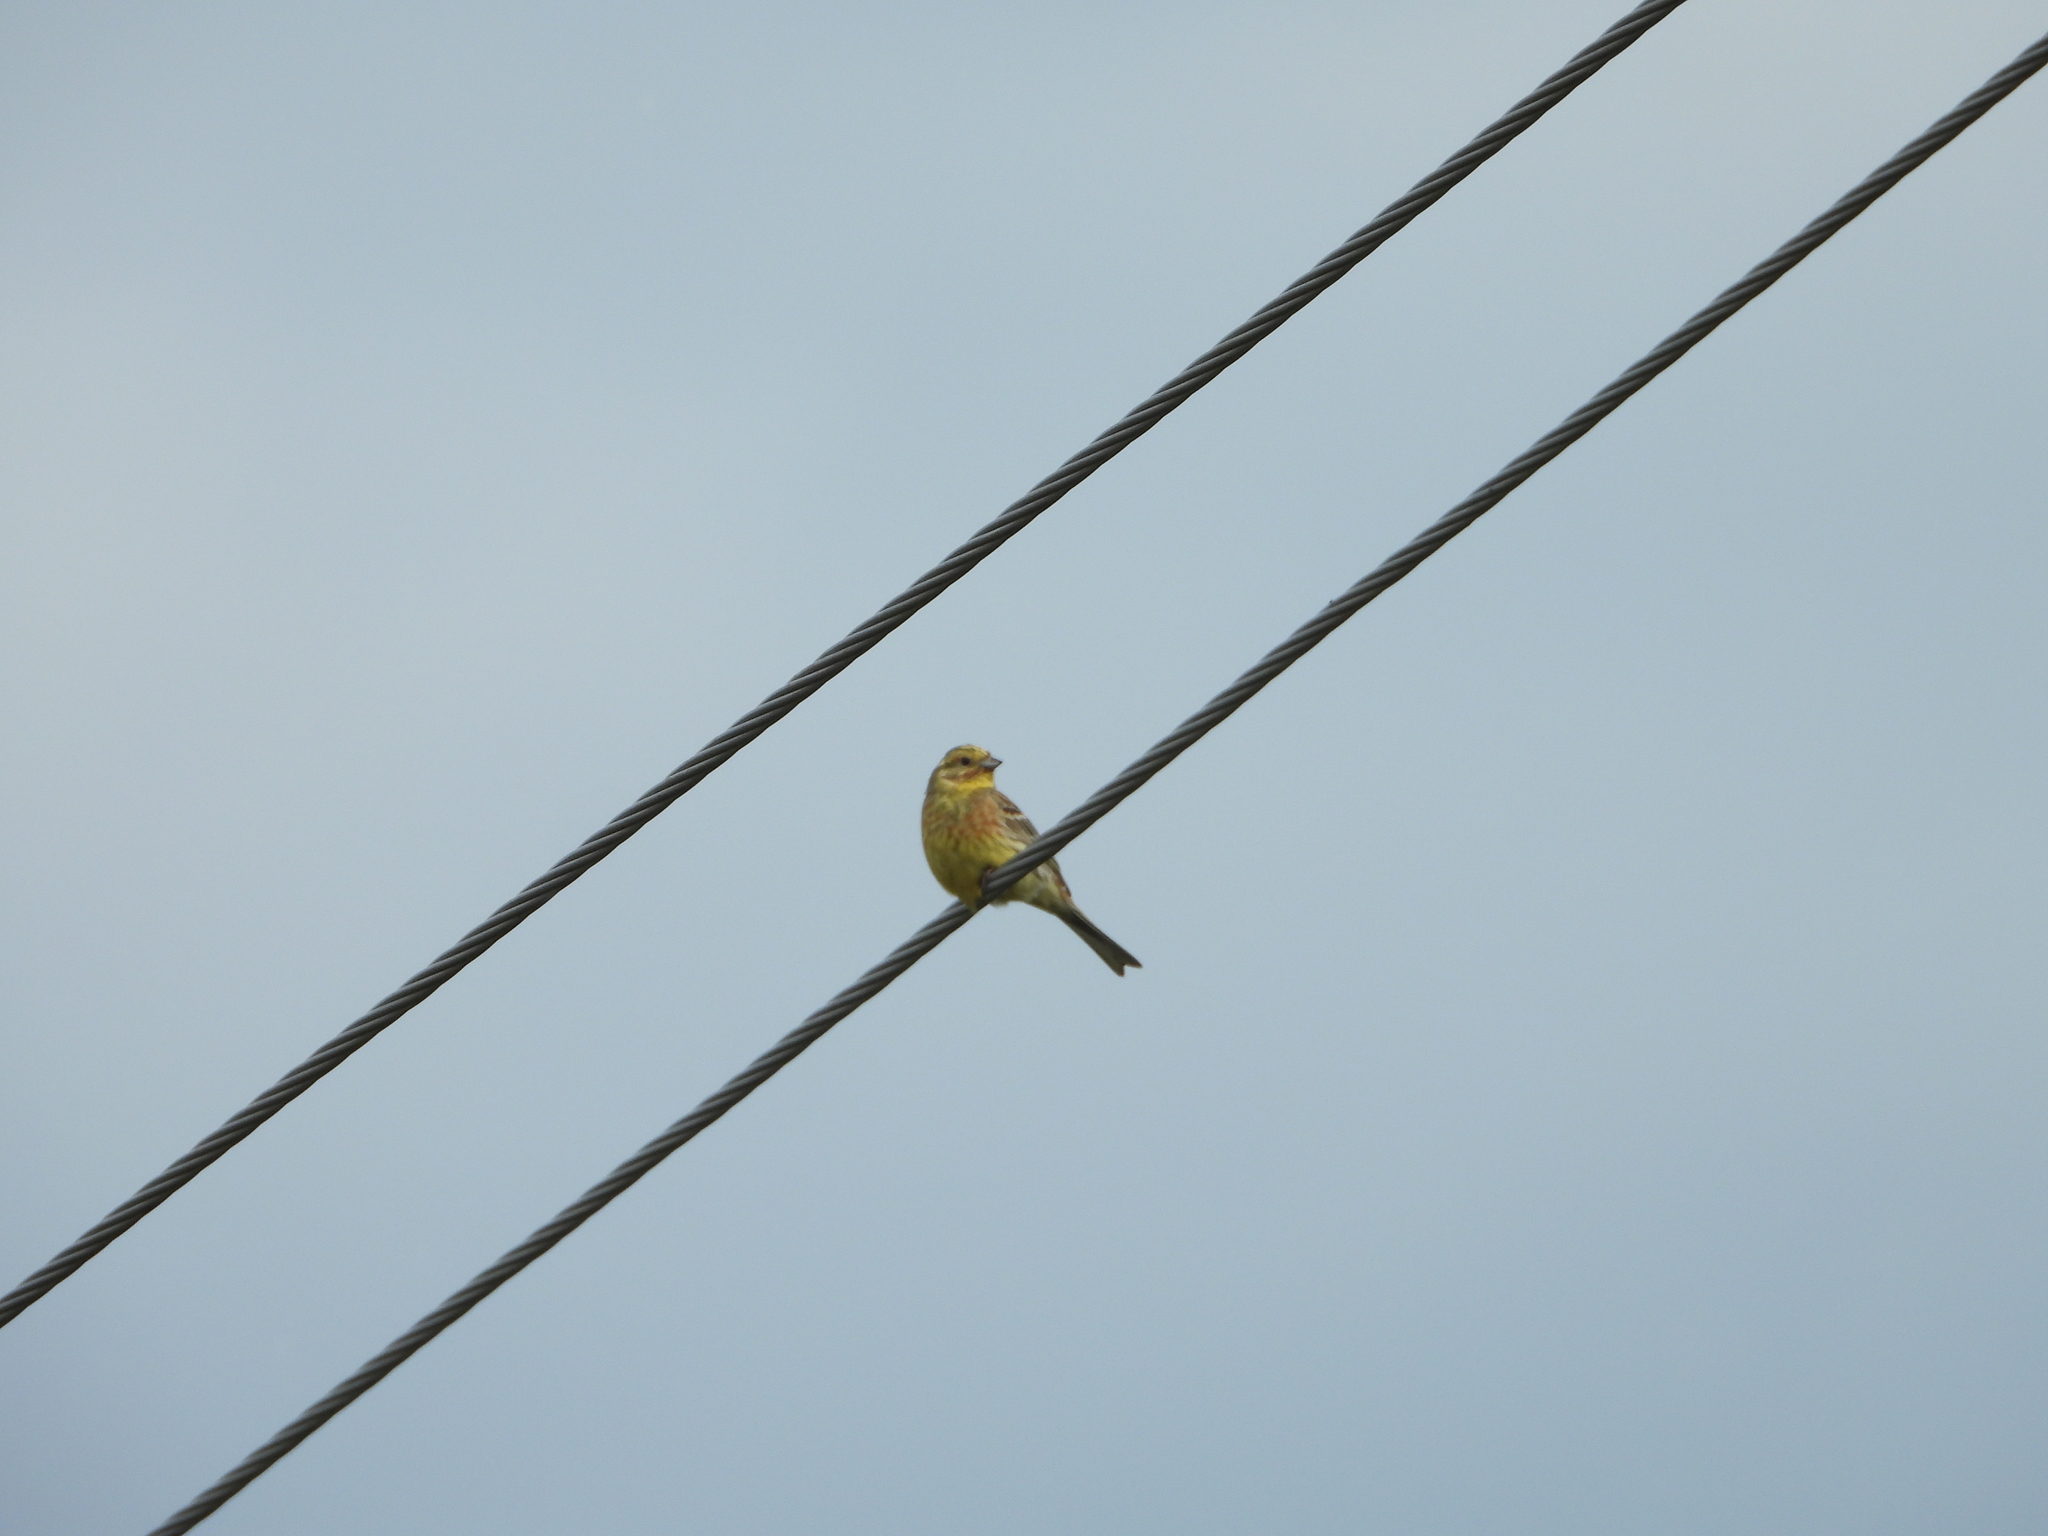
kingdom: Animalia
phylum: Chordata
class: Aves
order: Passeriformes
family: Emberizidae
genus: Emberiza
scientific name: Emberiza citrinella
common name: Yellowhammer
